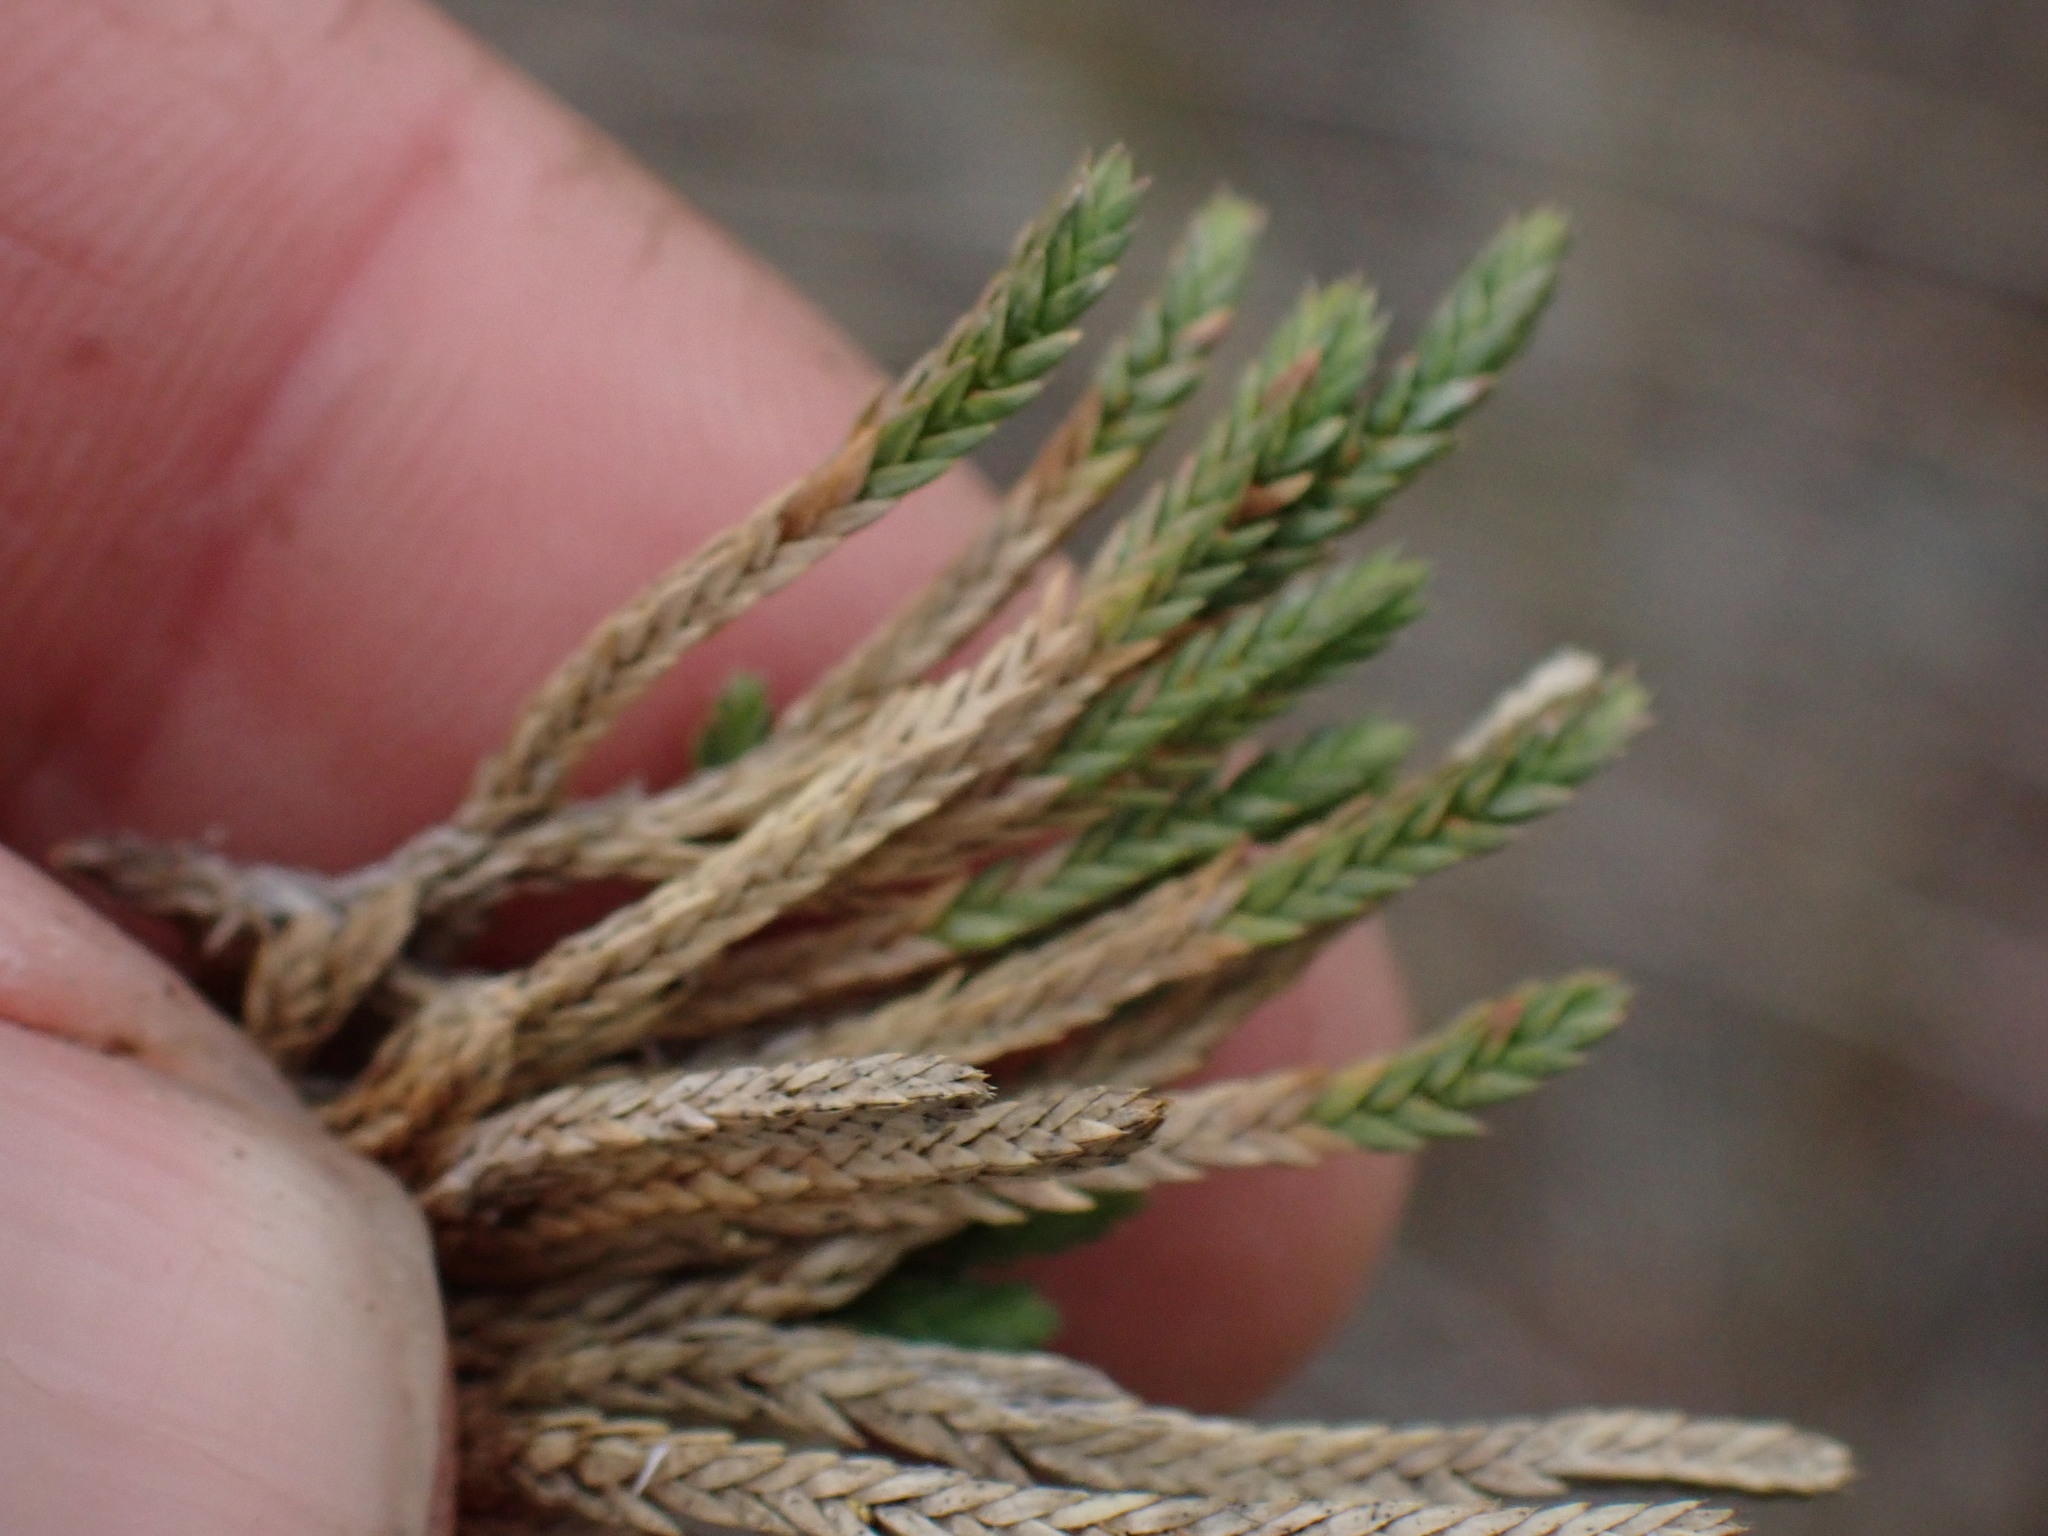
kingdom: Plantae
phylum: Tracheophyta
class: Lycopodiopsida
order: Selaginellales
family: Selaginellaceae
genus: Selaginella
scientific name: Selaginella wallacei
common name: Wallace's selaginella
